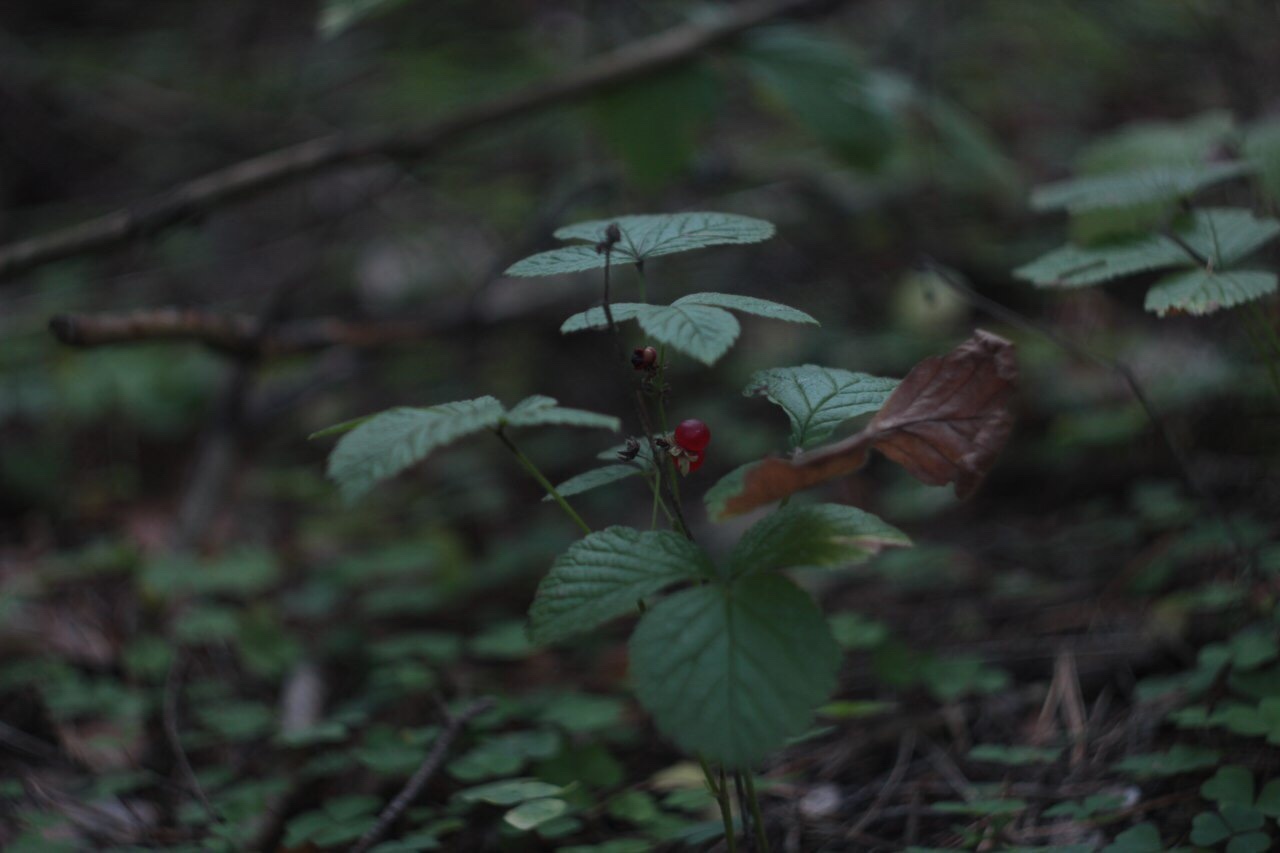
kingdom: Plantae
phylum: Tracheophyta
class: Magnoliopsida
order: Rosales
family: Rosaceae
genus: Rubus
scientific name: Rubus saxatilis
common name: Stone bramble
